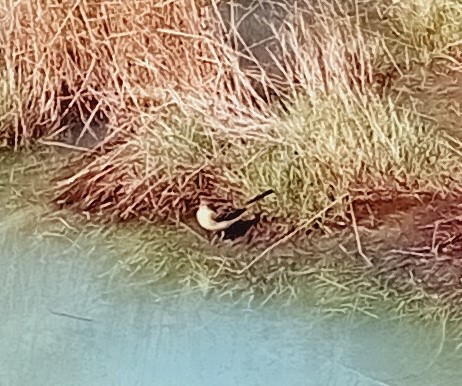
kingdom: Animalia
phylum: Chordata
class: Aves
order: Passeriformes
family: Motacillidae
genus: Motacilla
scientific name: Motacilla cinerea
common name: Grey wagtail
